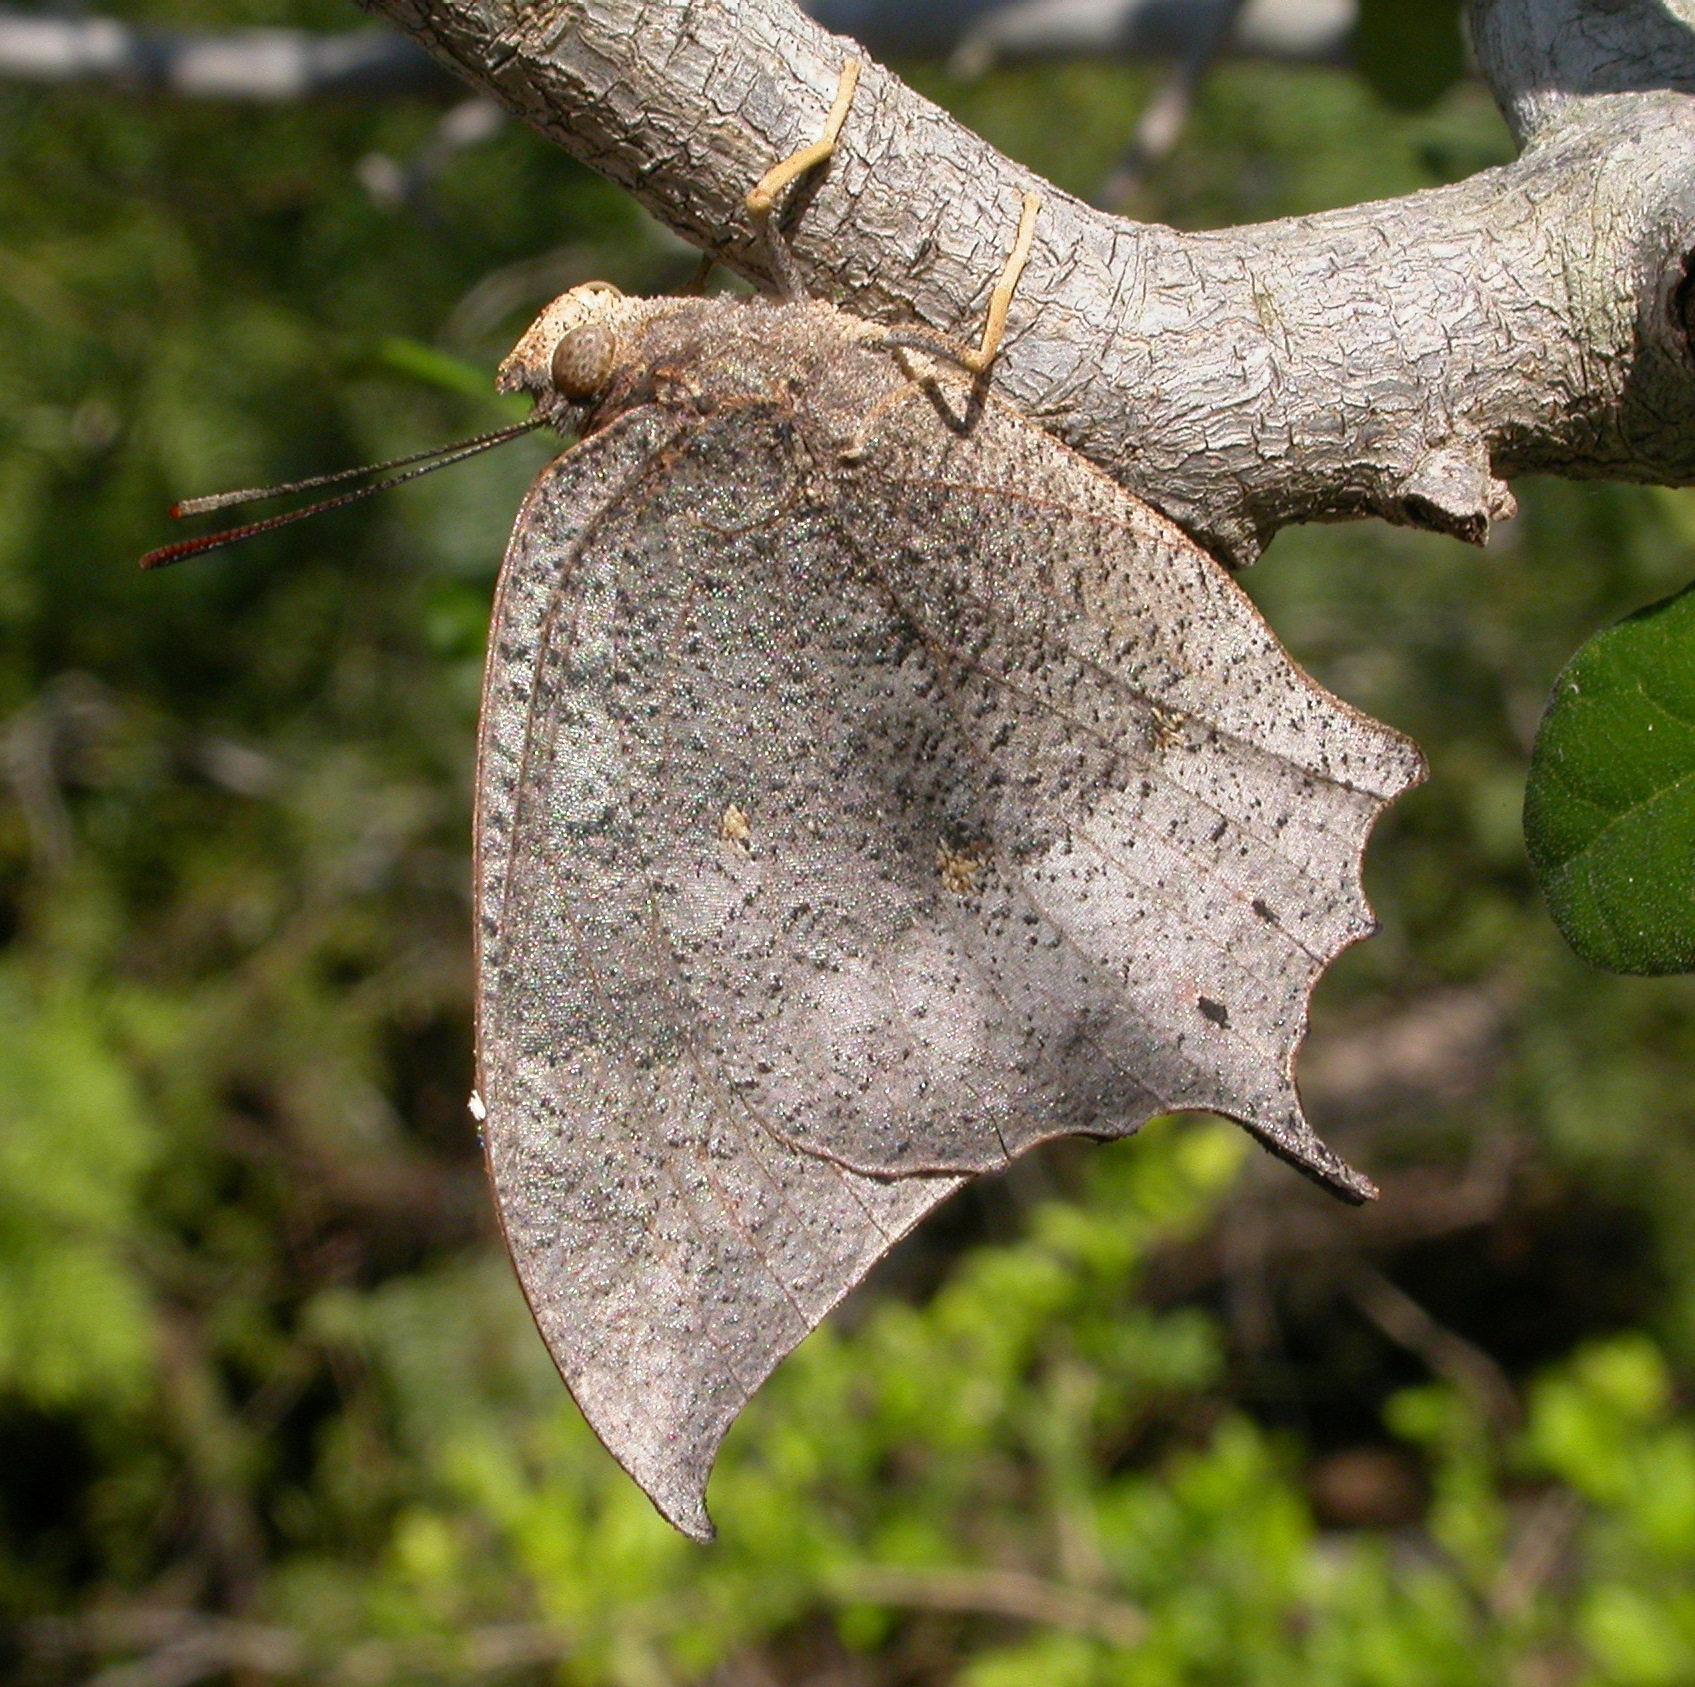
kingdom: Animalia
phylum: Arthropoda
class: Insecta
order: Lepidoptera
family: Nymphalidae
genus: Anaea
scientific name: Anaea aidea
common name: Tropical leafwing
